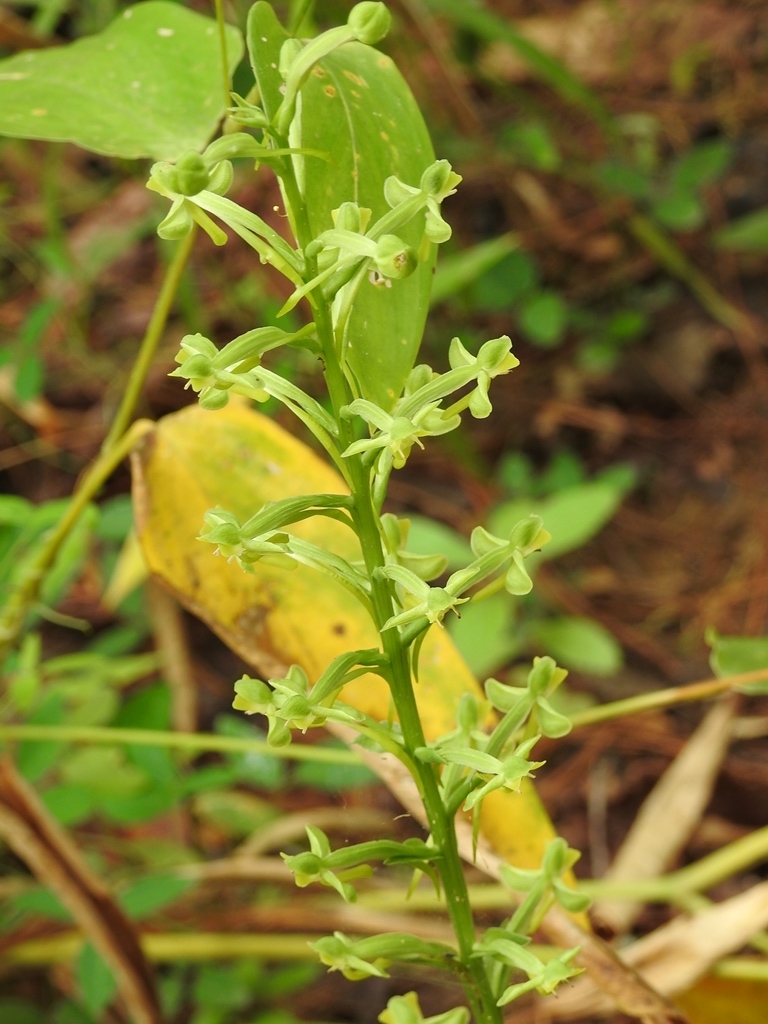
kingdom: Plantae
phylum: Tracheophyta
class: Liliopsida
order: Asparagales
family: Orchidaceae
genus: Habenaria
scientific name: Habenaria floribunda
